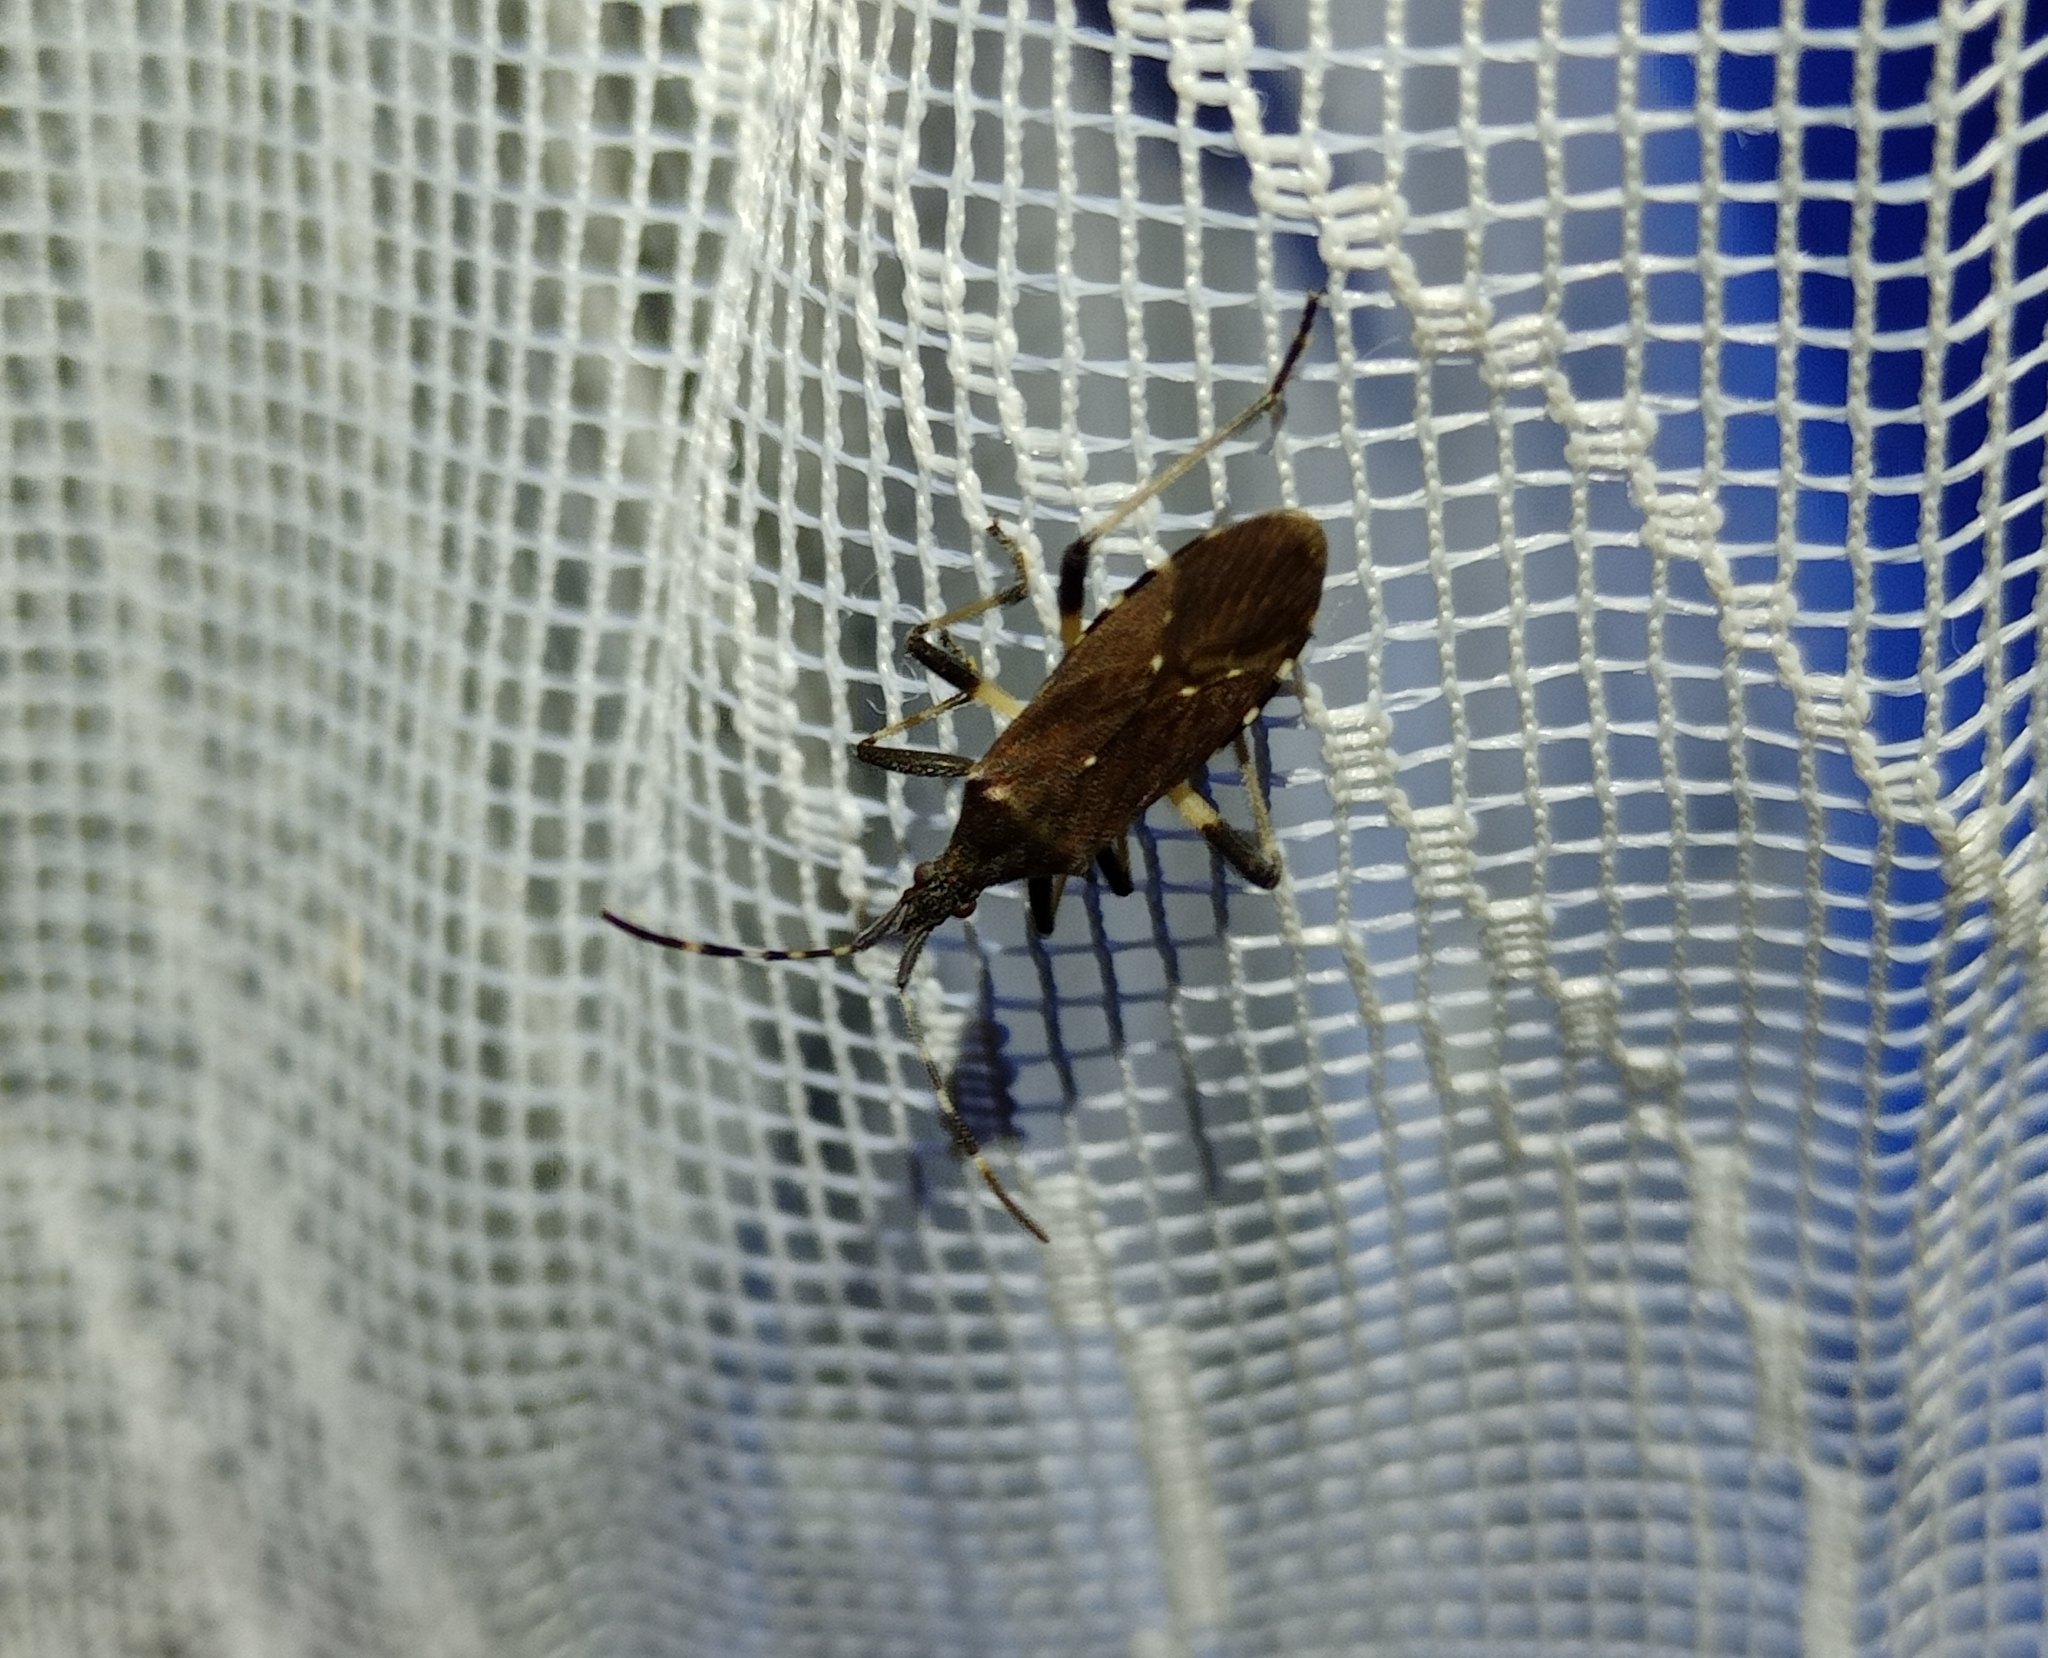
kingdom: Animalia
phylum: Arthropoda
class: Insecta
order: Hemiptera
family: Stenocephalidae
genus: Dicranocephalus
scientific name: Dicranocephalus agilis
